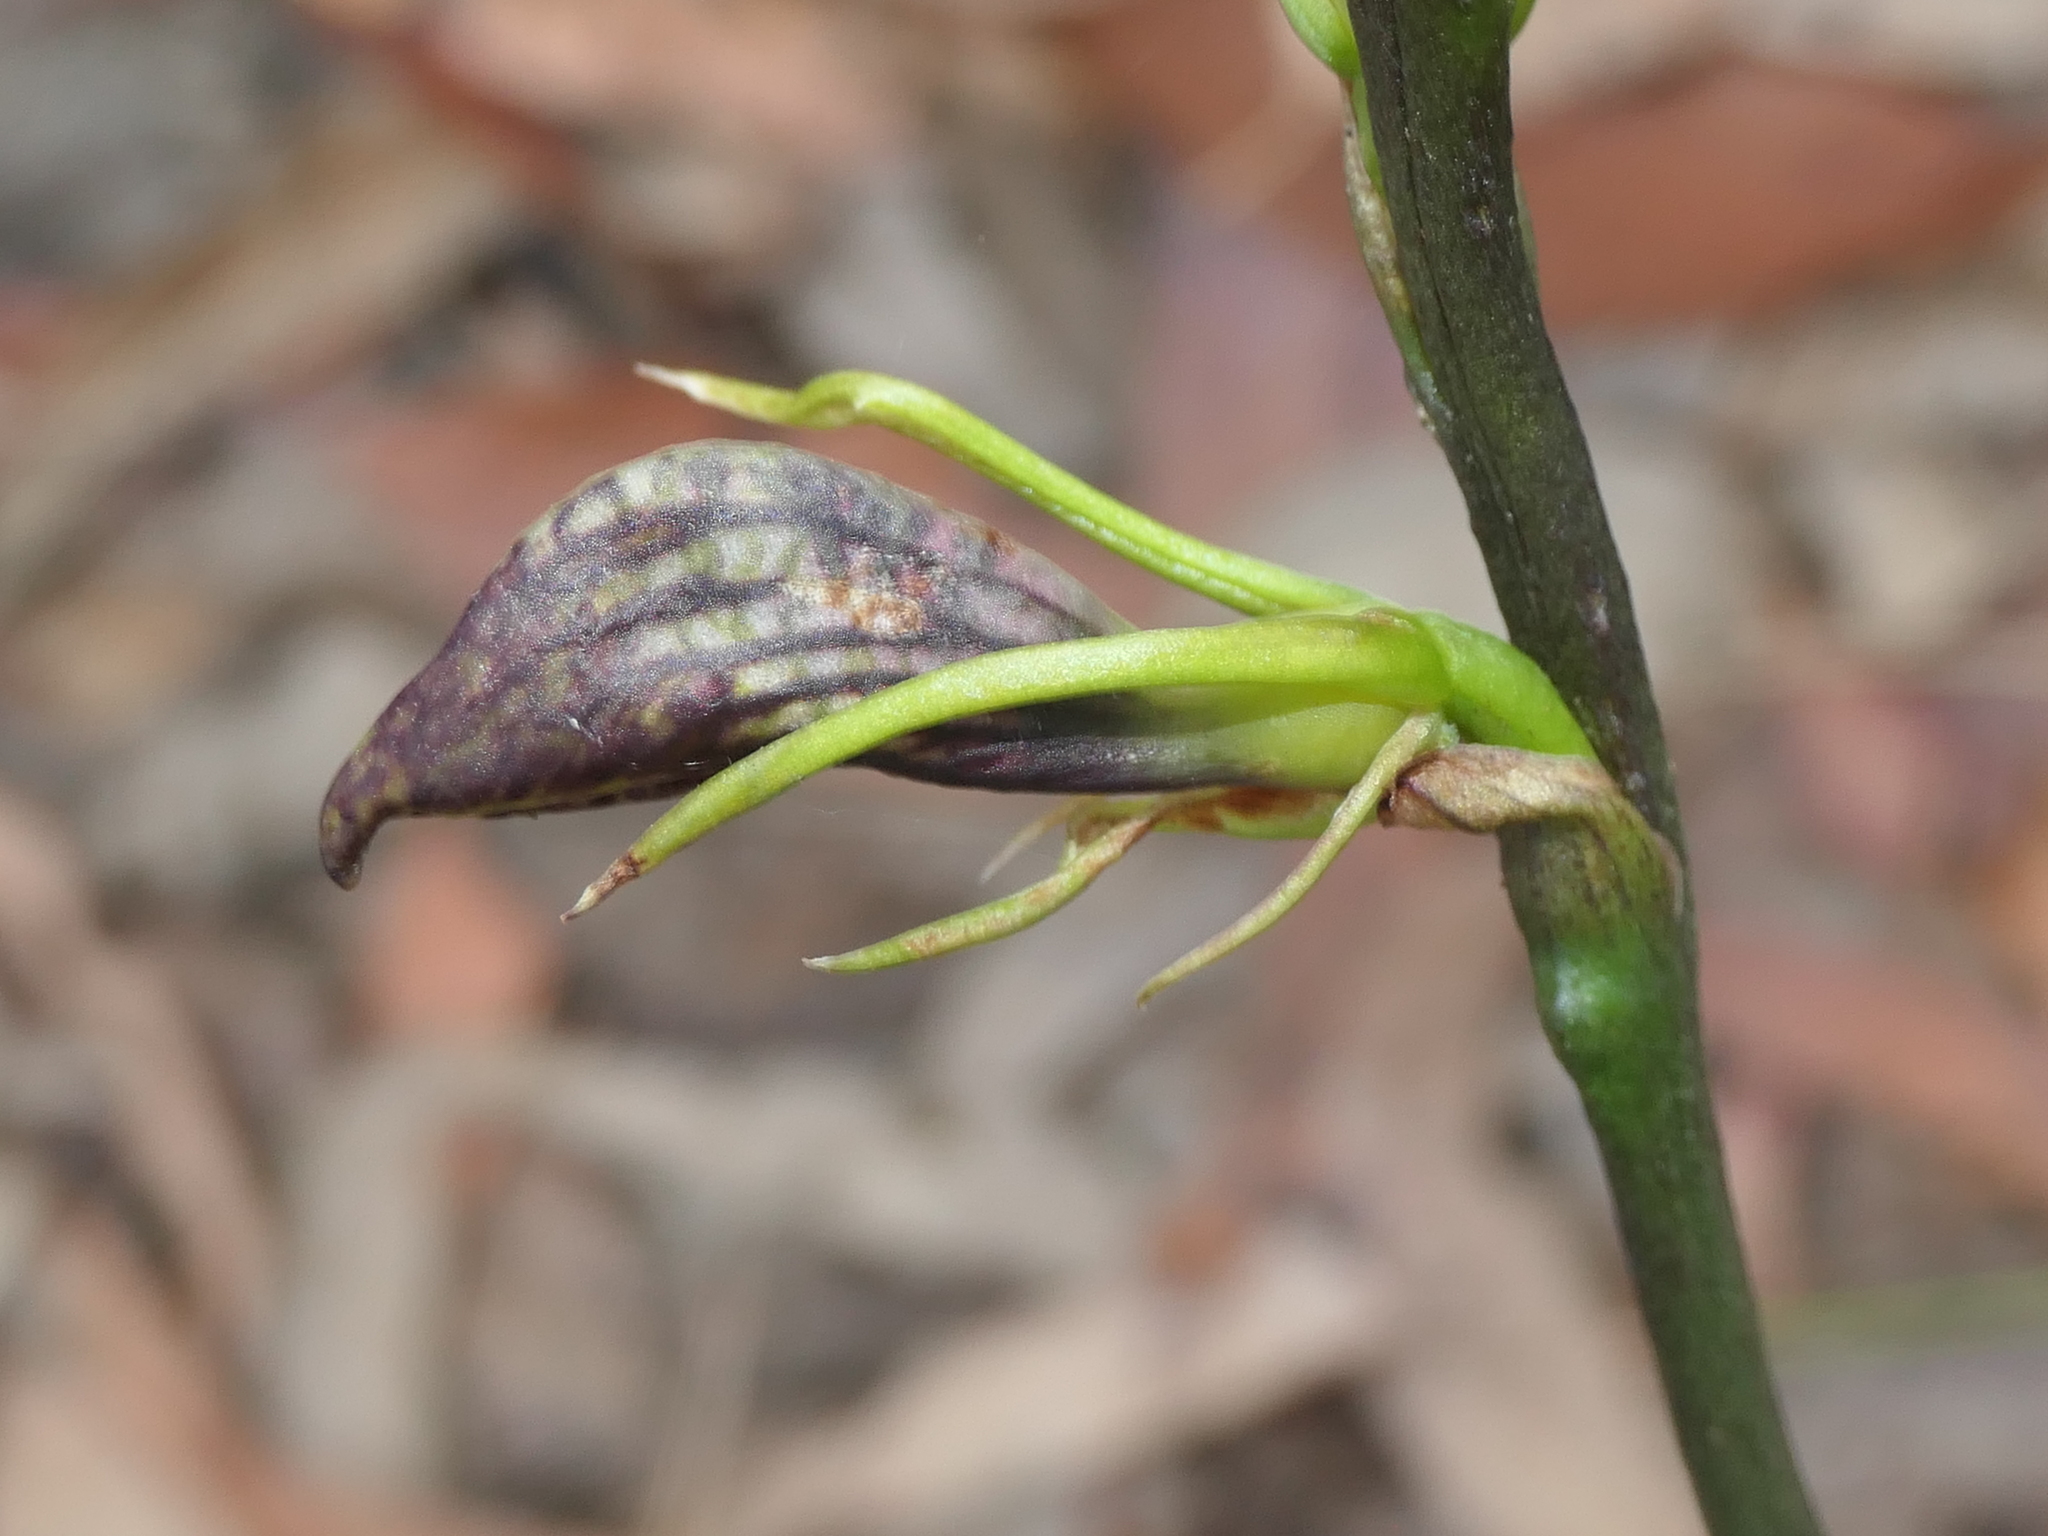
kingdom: Plantae
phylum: Tracheophyta
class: Liliopsida
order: Asparagales
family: Orchidaceae
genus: Cryptostylis
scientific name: Cryptostylis erecta
